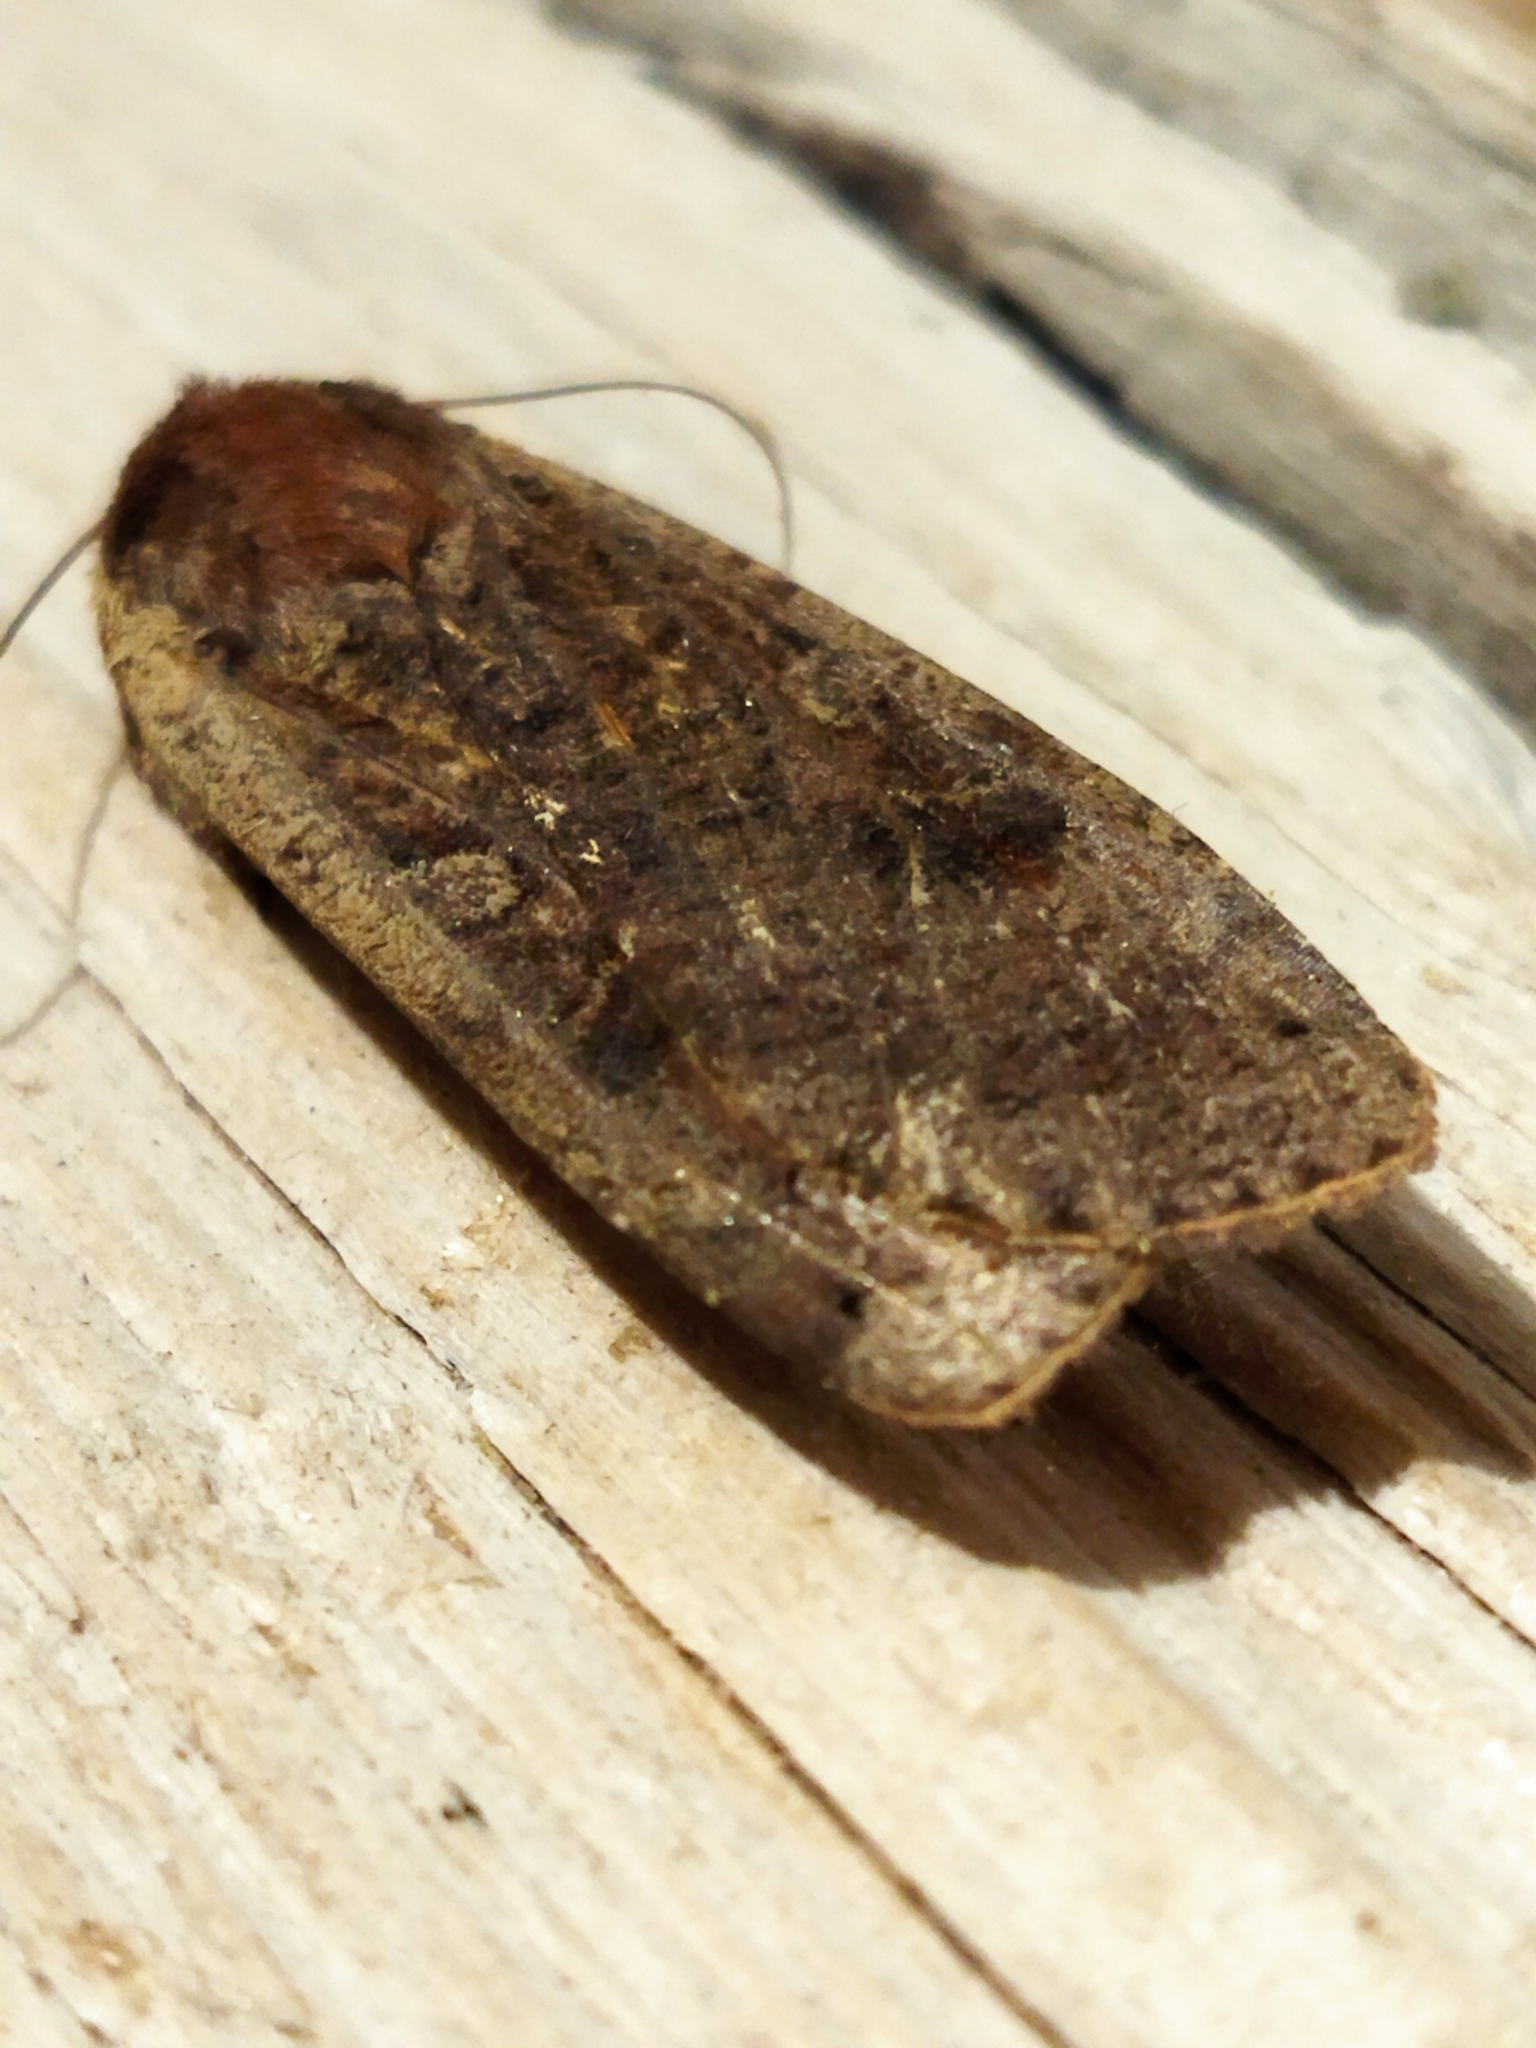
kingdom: Animalia
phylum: Arthropoda
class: Insecta
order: Lepidoptera
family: Noctuidae
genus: Noctua
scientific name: Noctua pronuba
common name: Large yellow underwing
